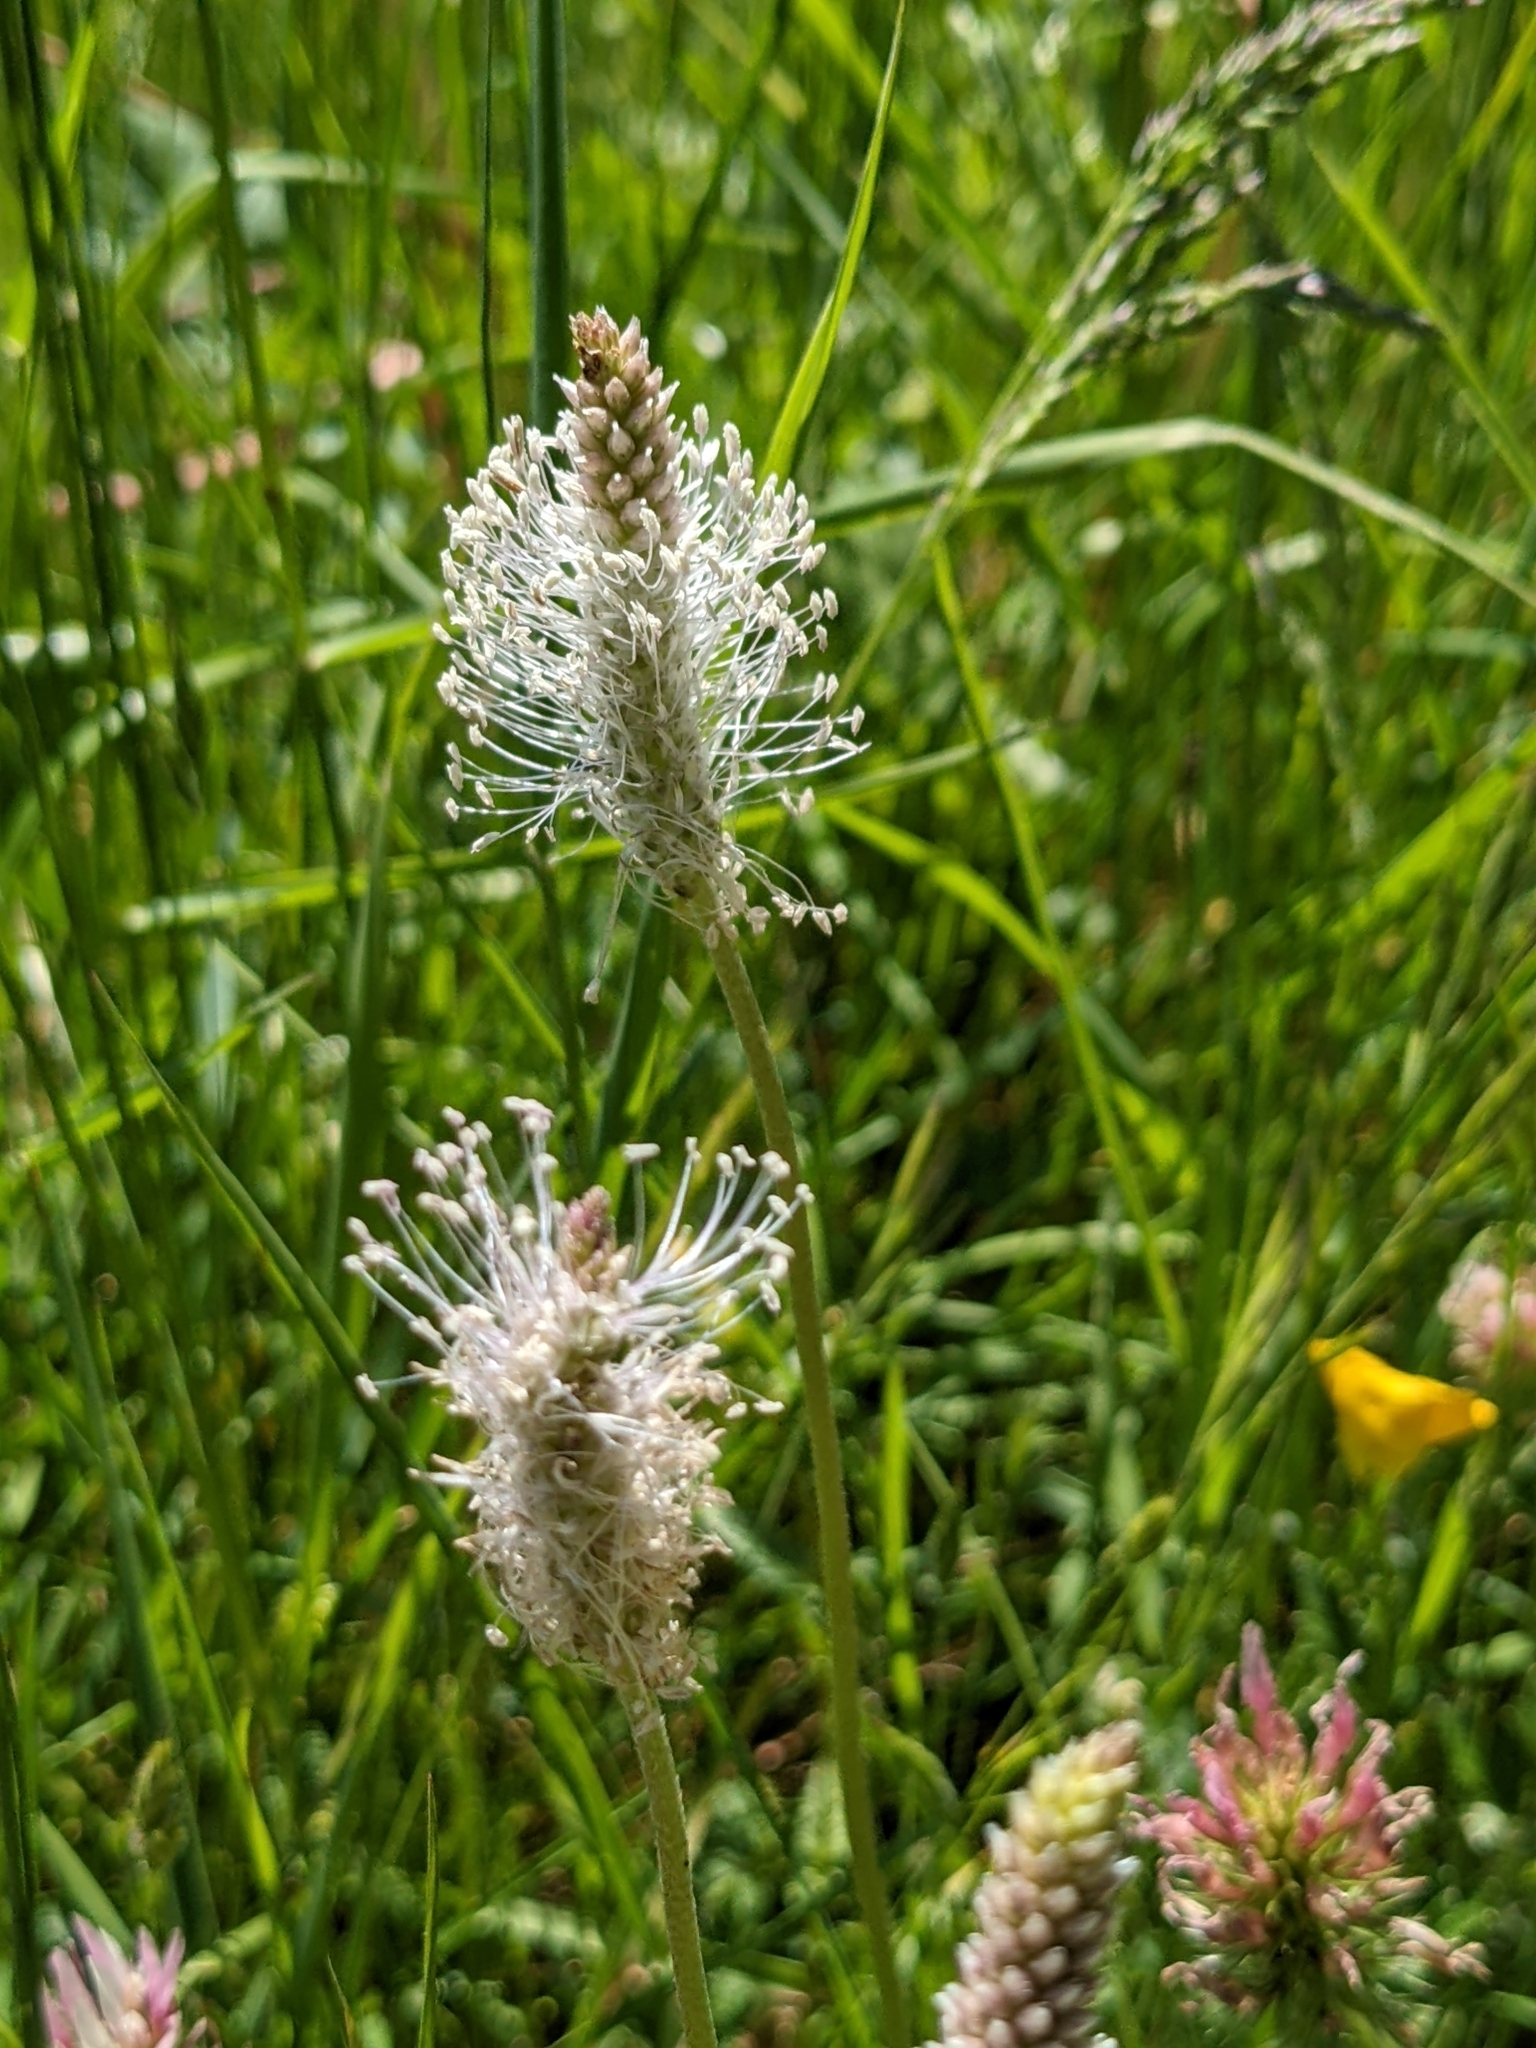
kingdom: Plantae
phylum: Tracheophyta
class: Magnoliopsida
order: Lamiales
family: Plantaginaceae
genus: Plantago
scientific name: Plantago media
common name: Hoary plantain
